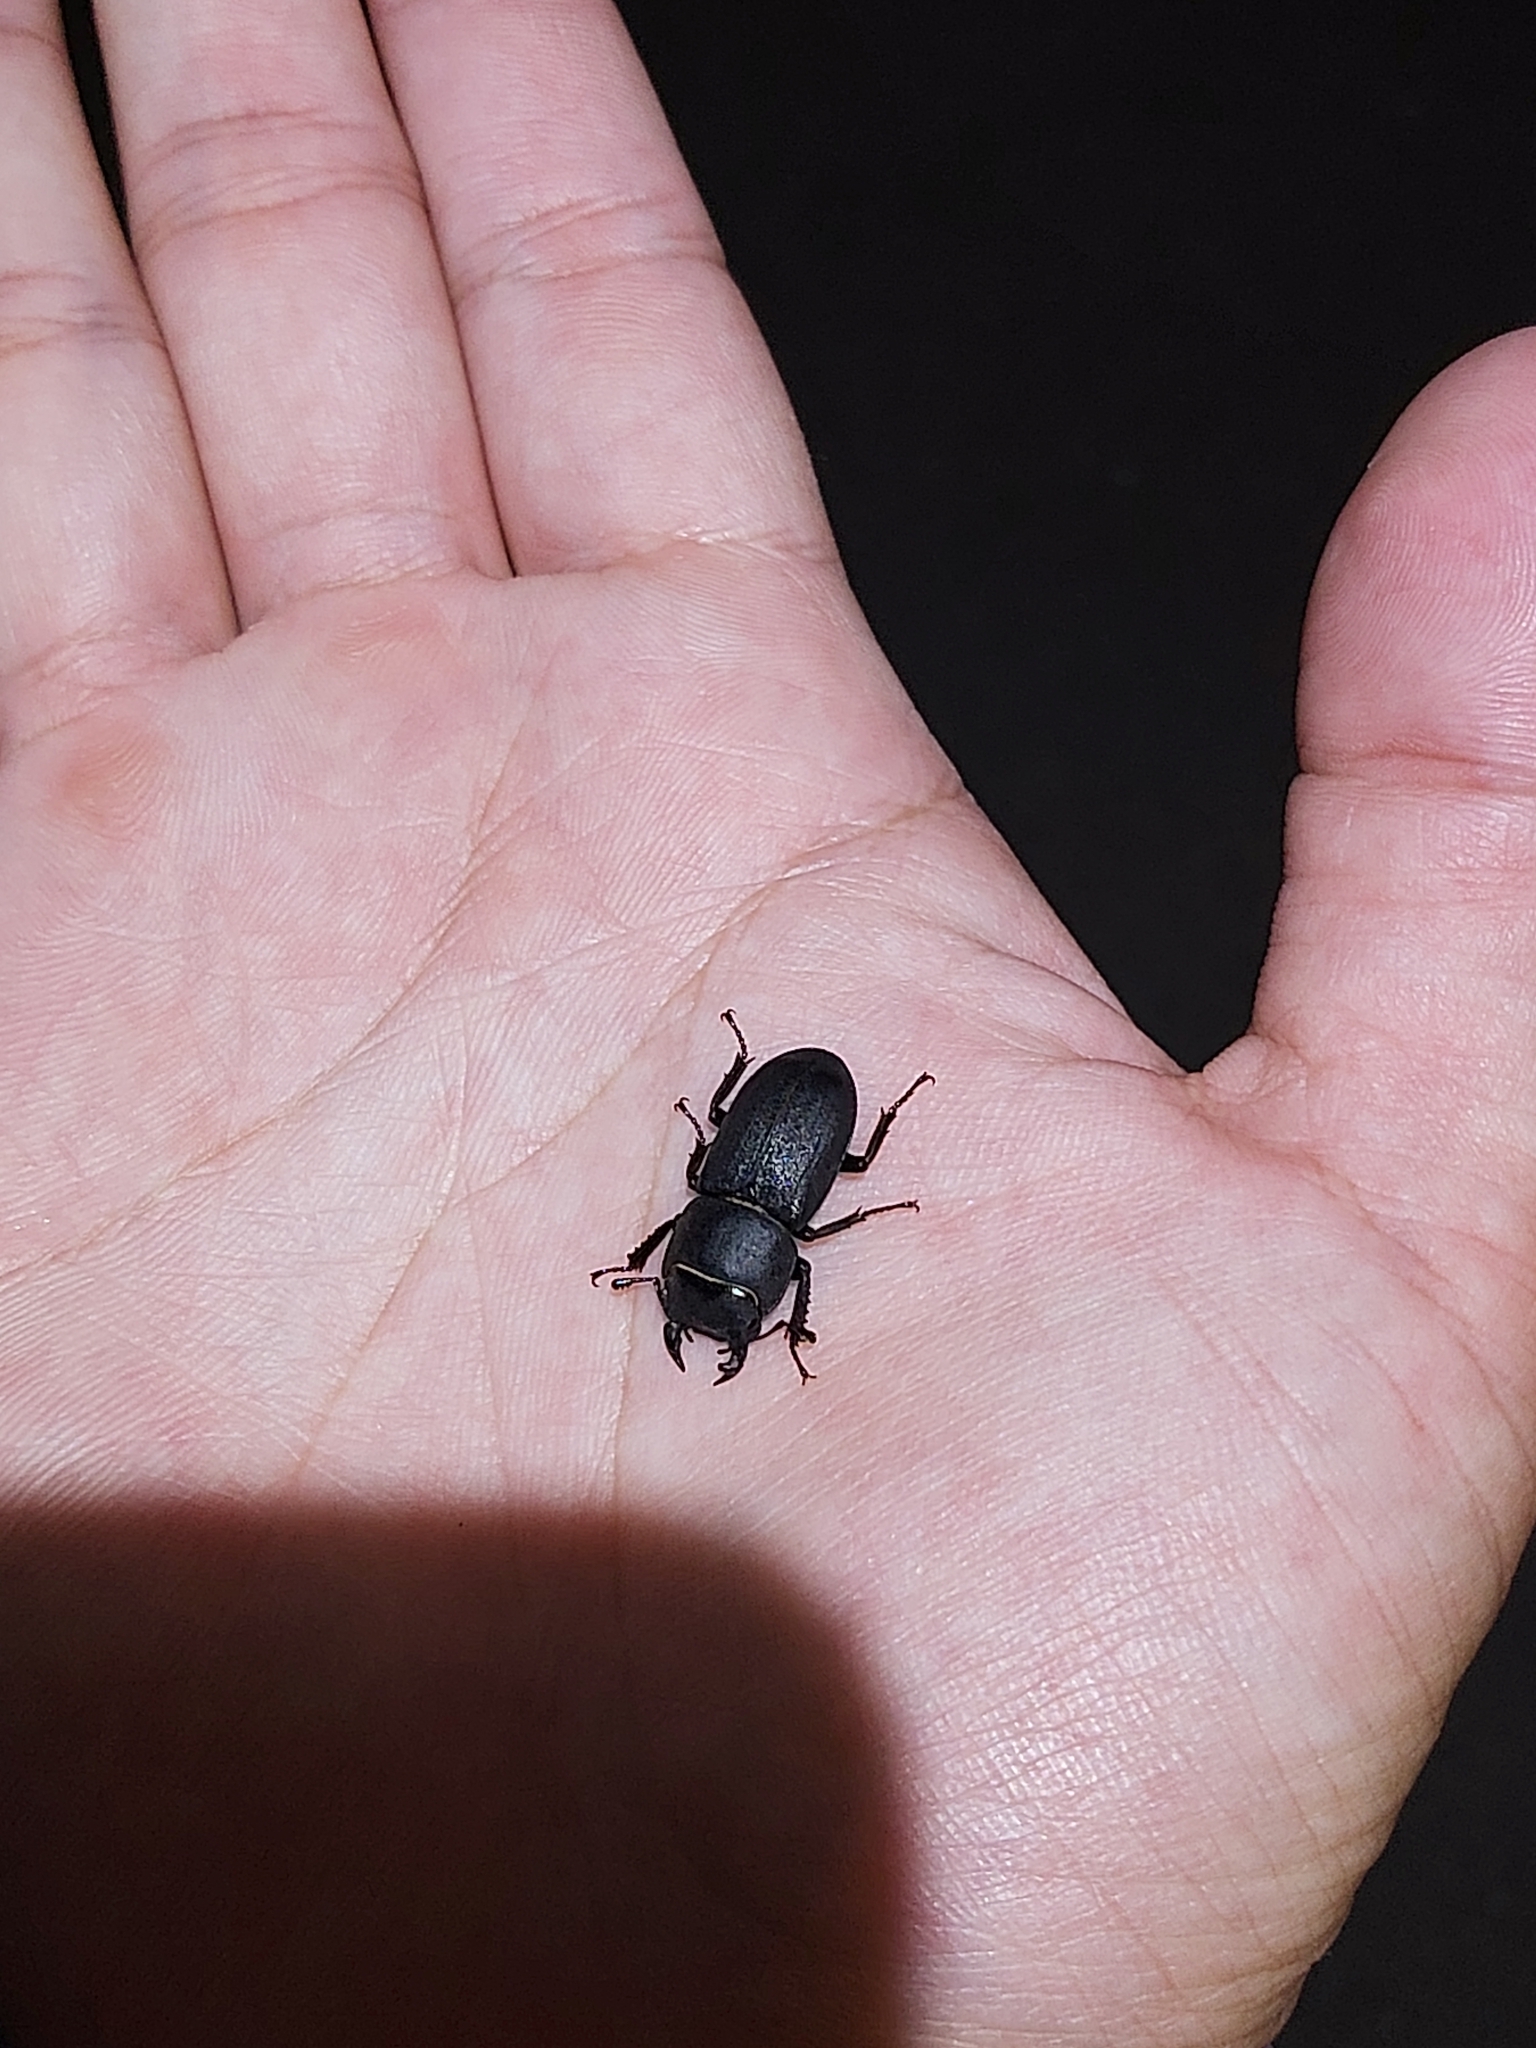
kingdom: Animalia
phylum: Arthropoda
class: Insecta
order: Coleoptera
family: Lucanidae
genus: Dorcus
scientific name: Dorcus parallelipipedus
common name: Lesser stag beetle
